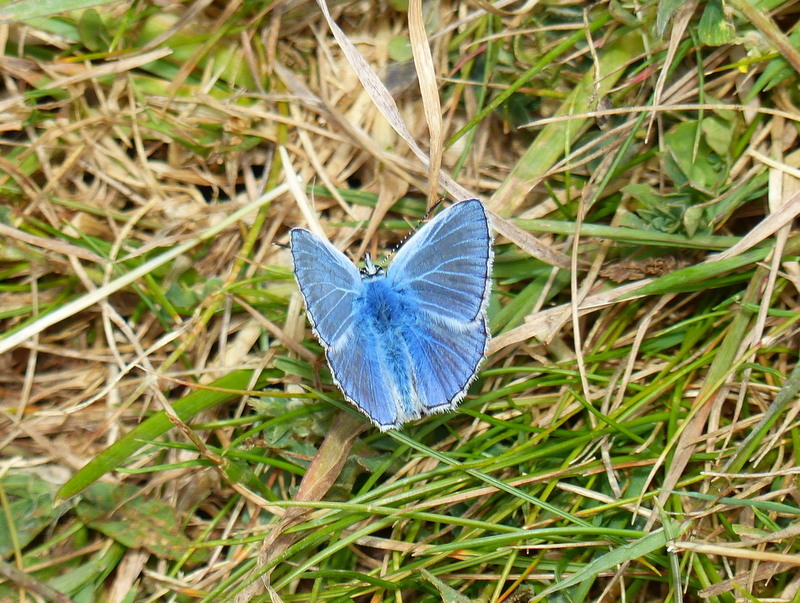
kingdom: Animalia
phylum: Arthropoda
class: Insecta
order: Lepidoptera
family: Lycaenidae
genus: Polyommatus
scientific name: Polyommatus icarus
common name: Common blue
